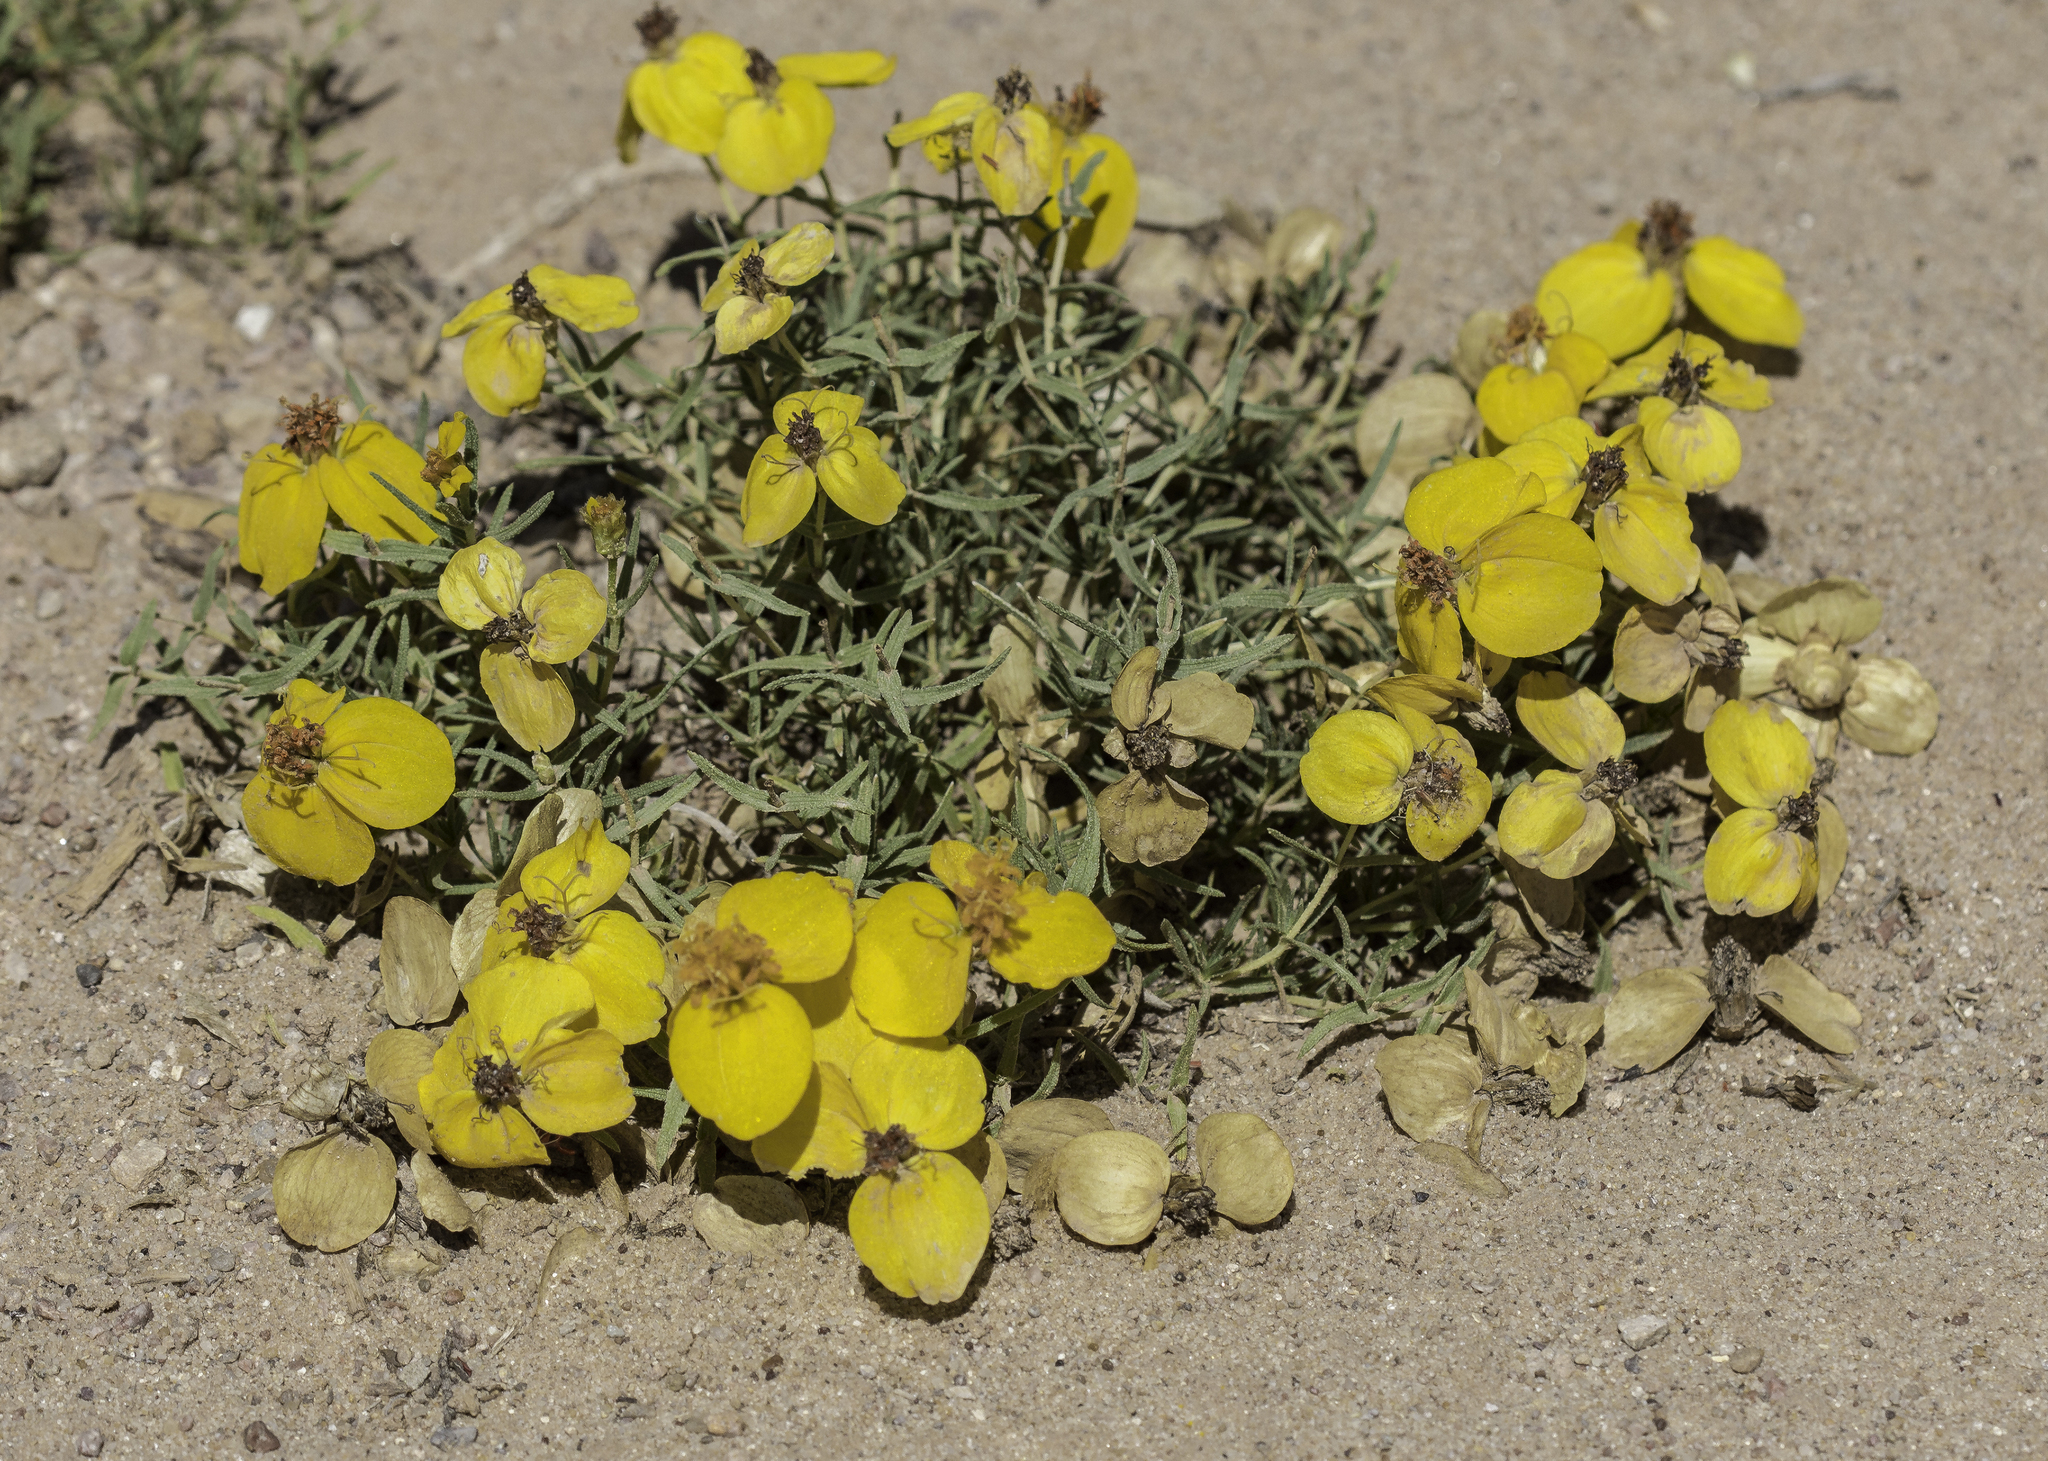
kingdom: Plantae
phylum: Tracheophyta
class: Magnoliopsida
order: Asterales
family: Asteraceae
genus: Zinnia
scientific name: Zinnia grandiflora
